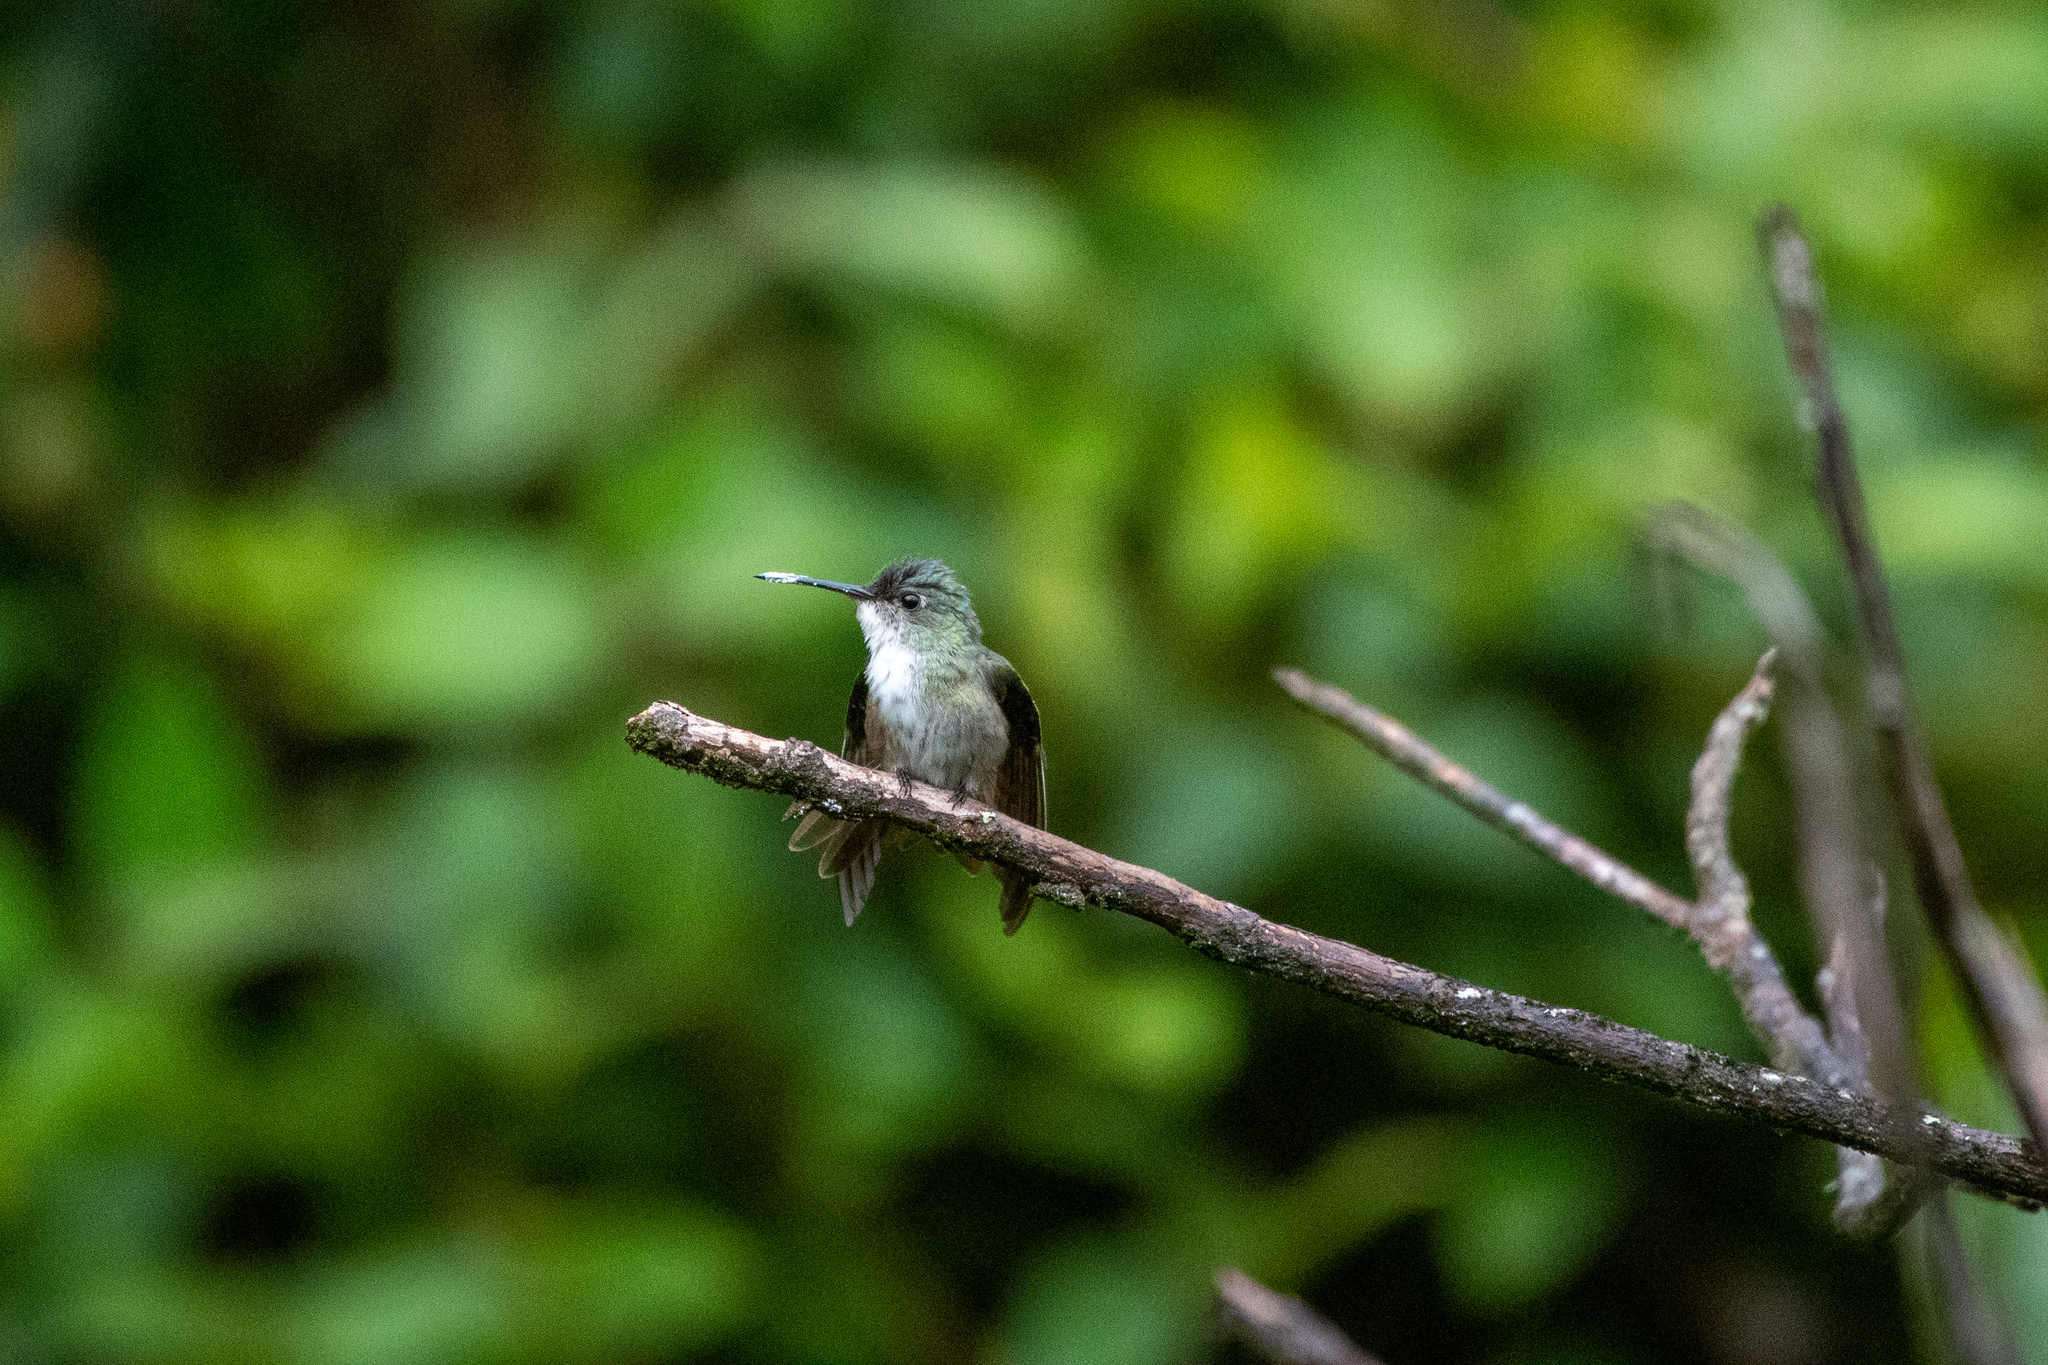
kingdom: Animalia
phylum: Chordata
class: Aves
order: Apodiformes
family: Trochilidae
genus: Saucerottia
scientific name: Saucerottia cyanocephala
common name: Azure-crowned hummingbird
